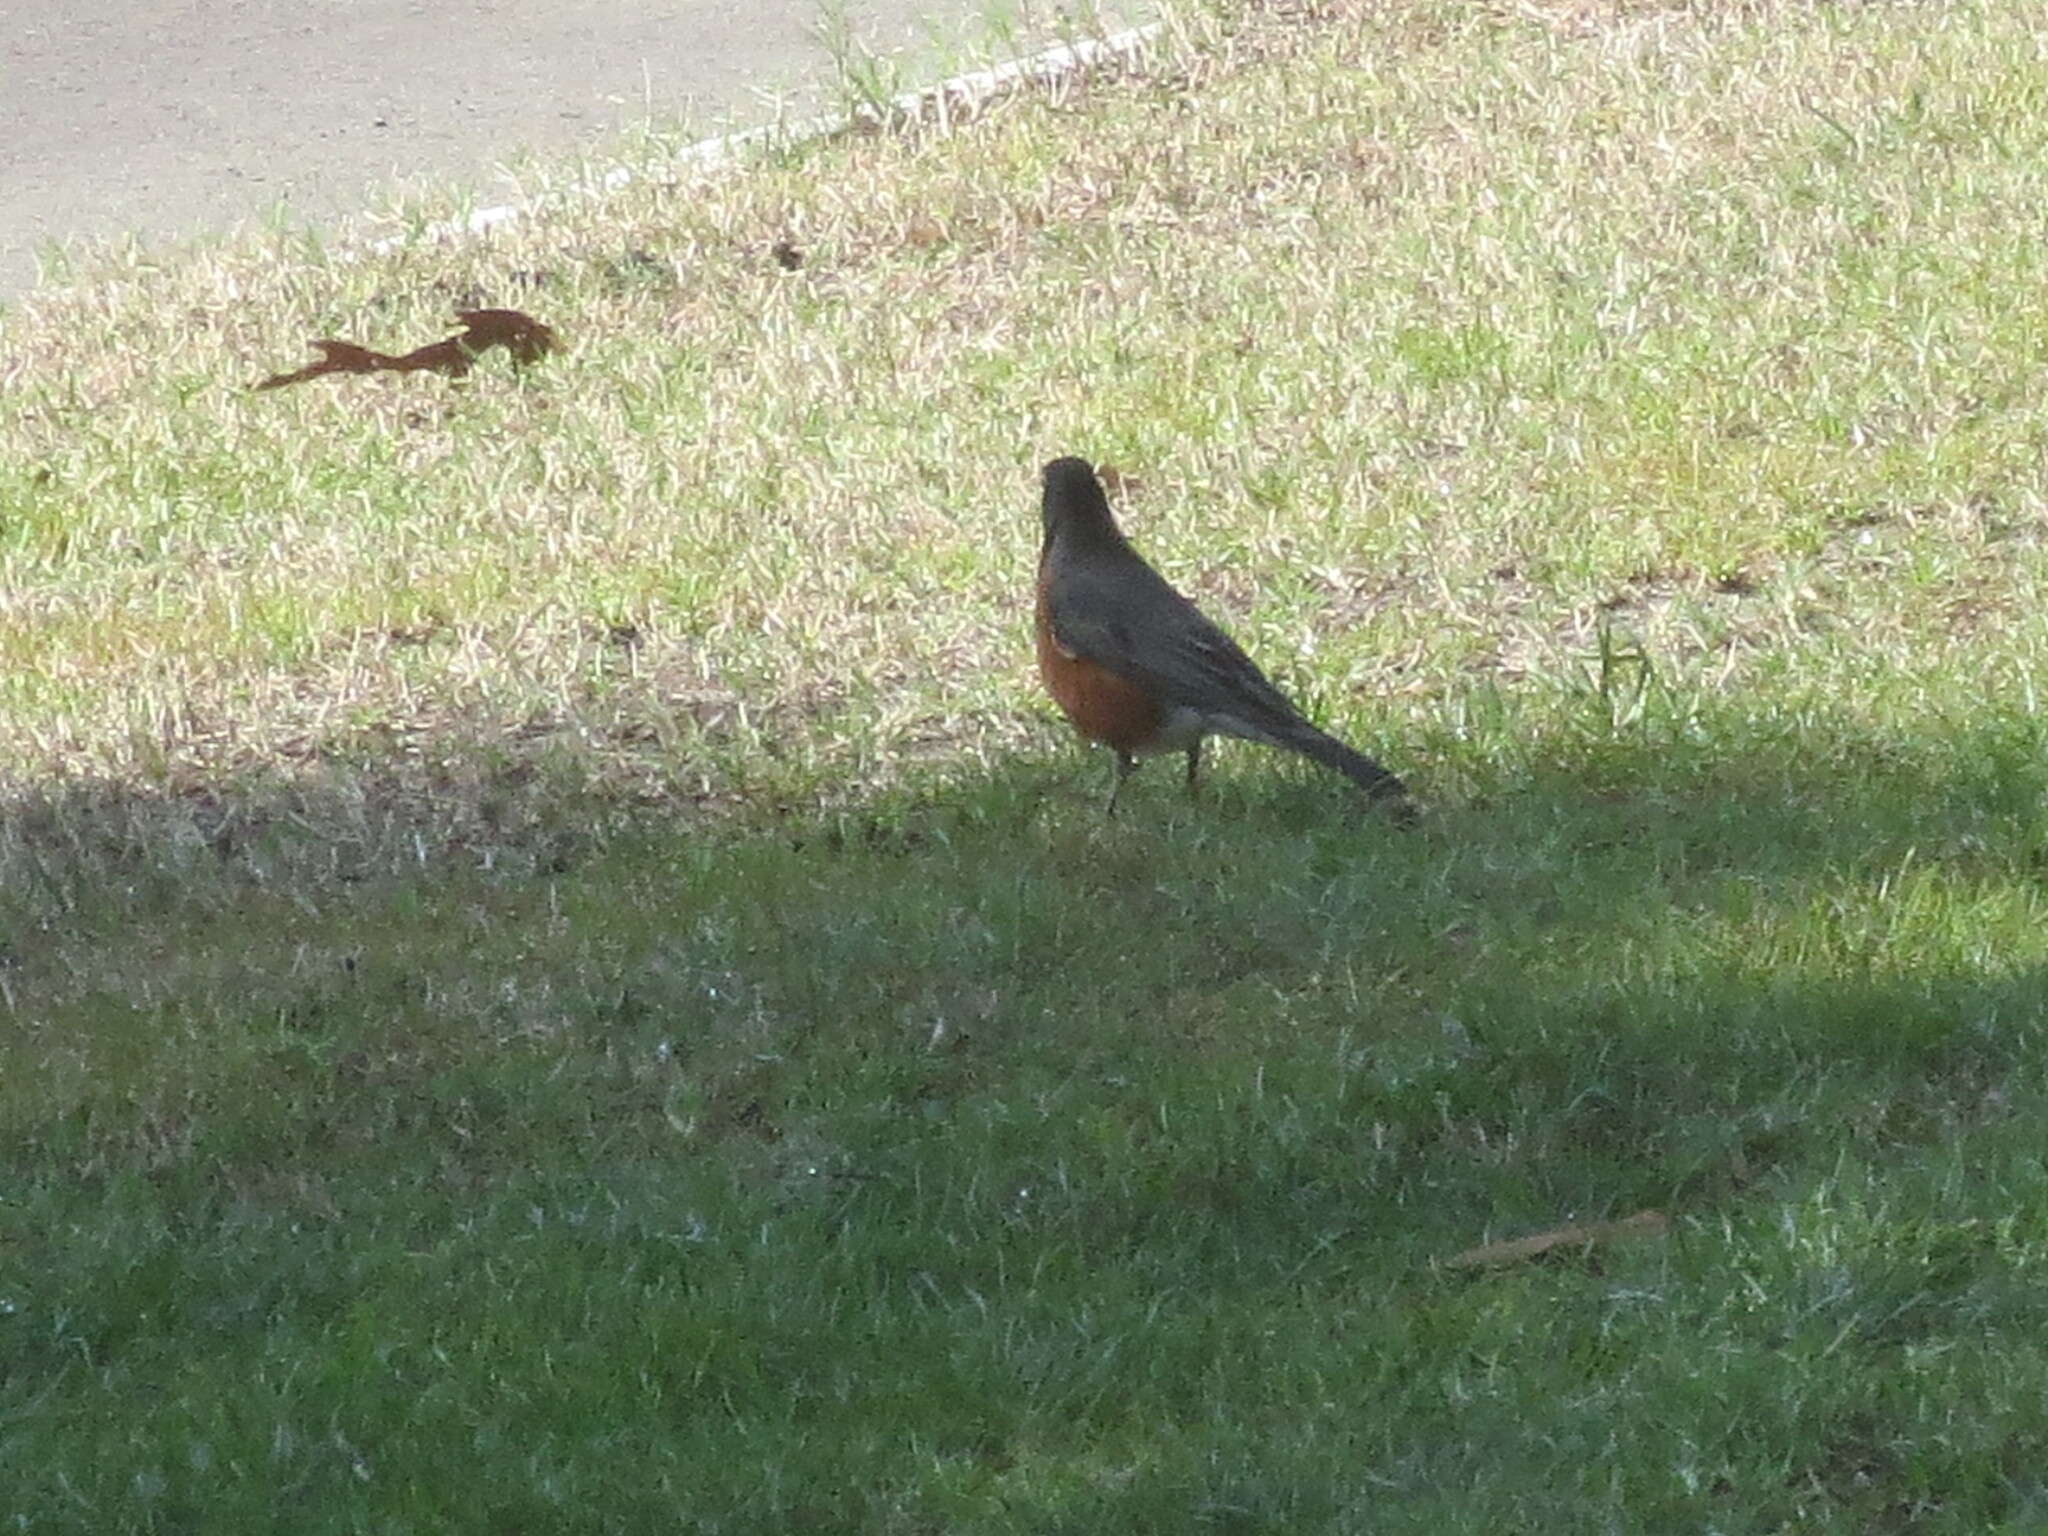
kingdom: Animalia
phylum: Chordata
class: Aves
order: Passeriformes
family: Turdidae
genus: Turdus
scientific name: Turdus migratorius
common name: American robin
